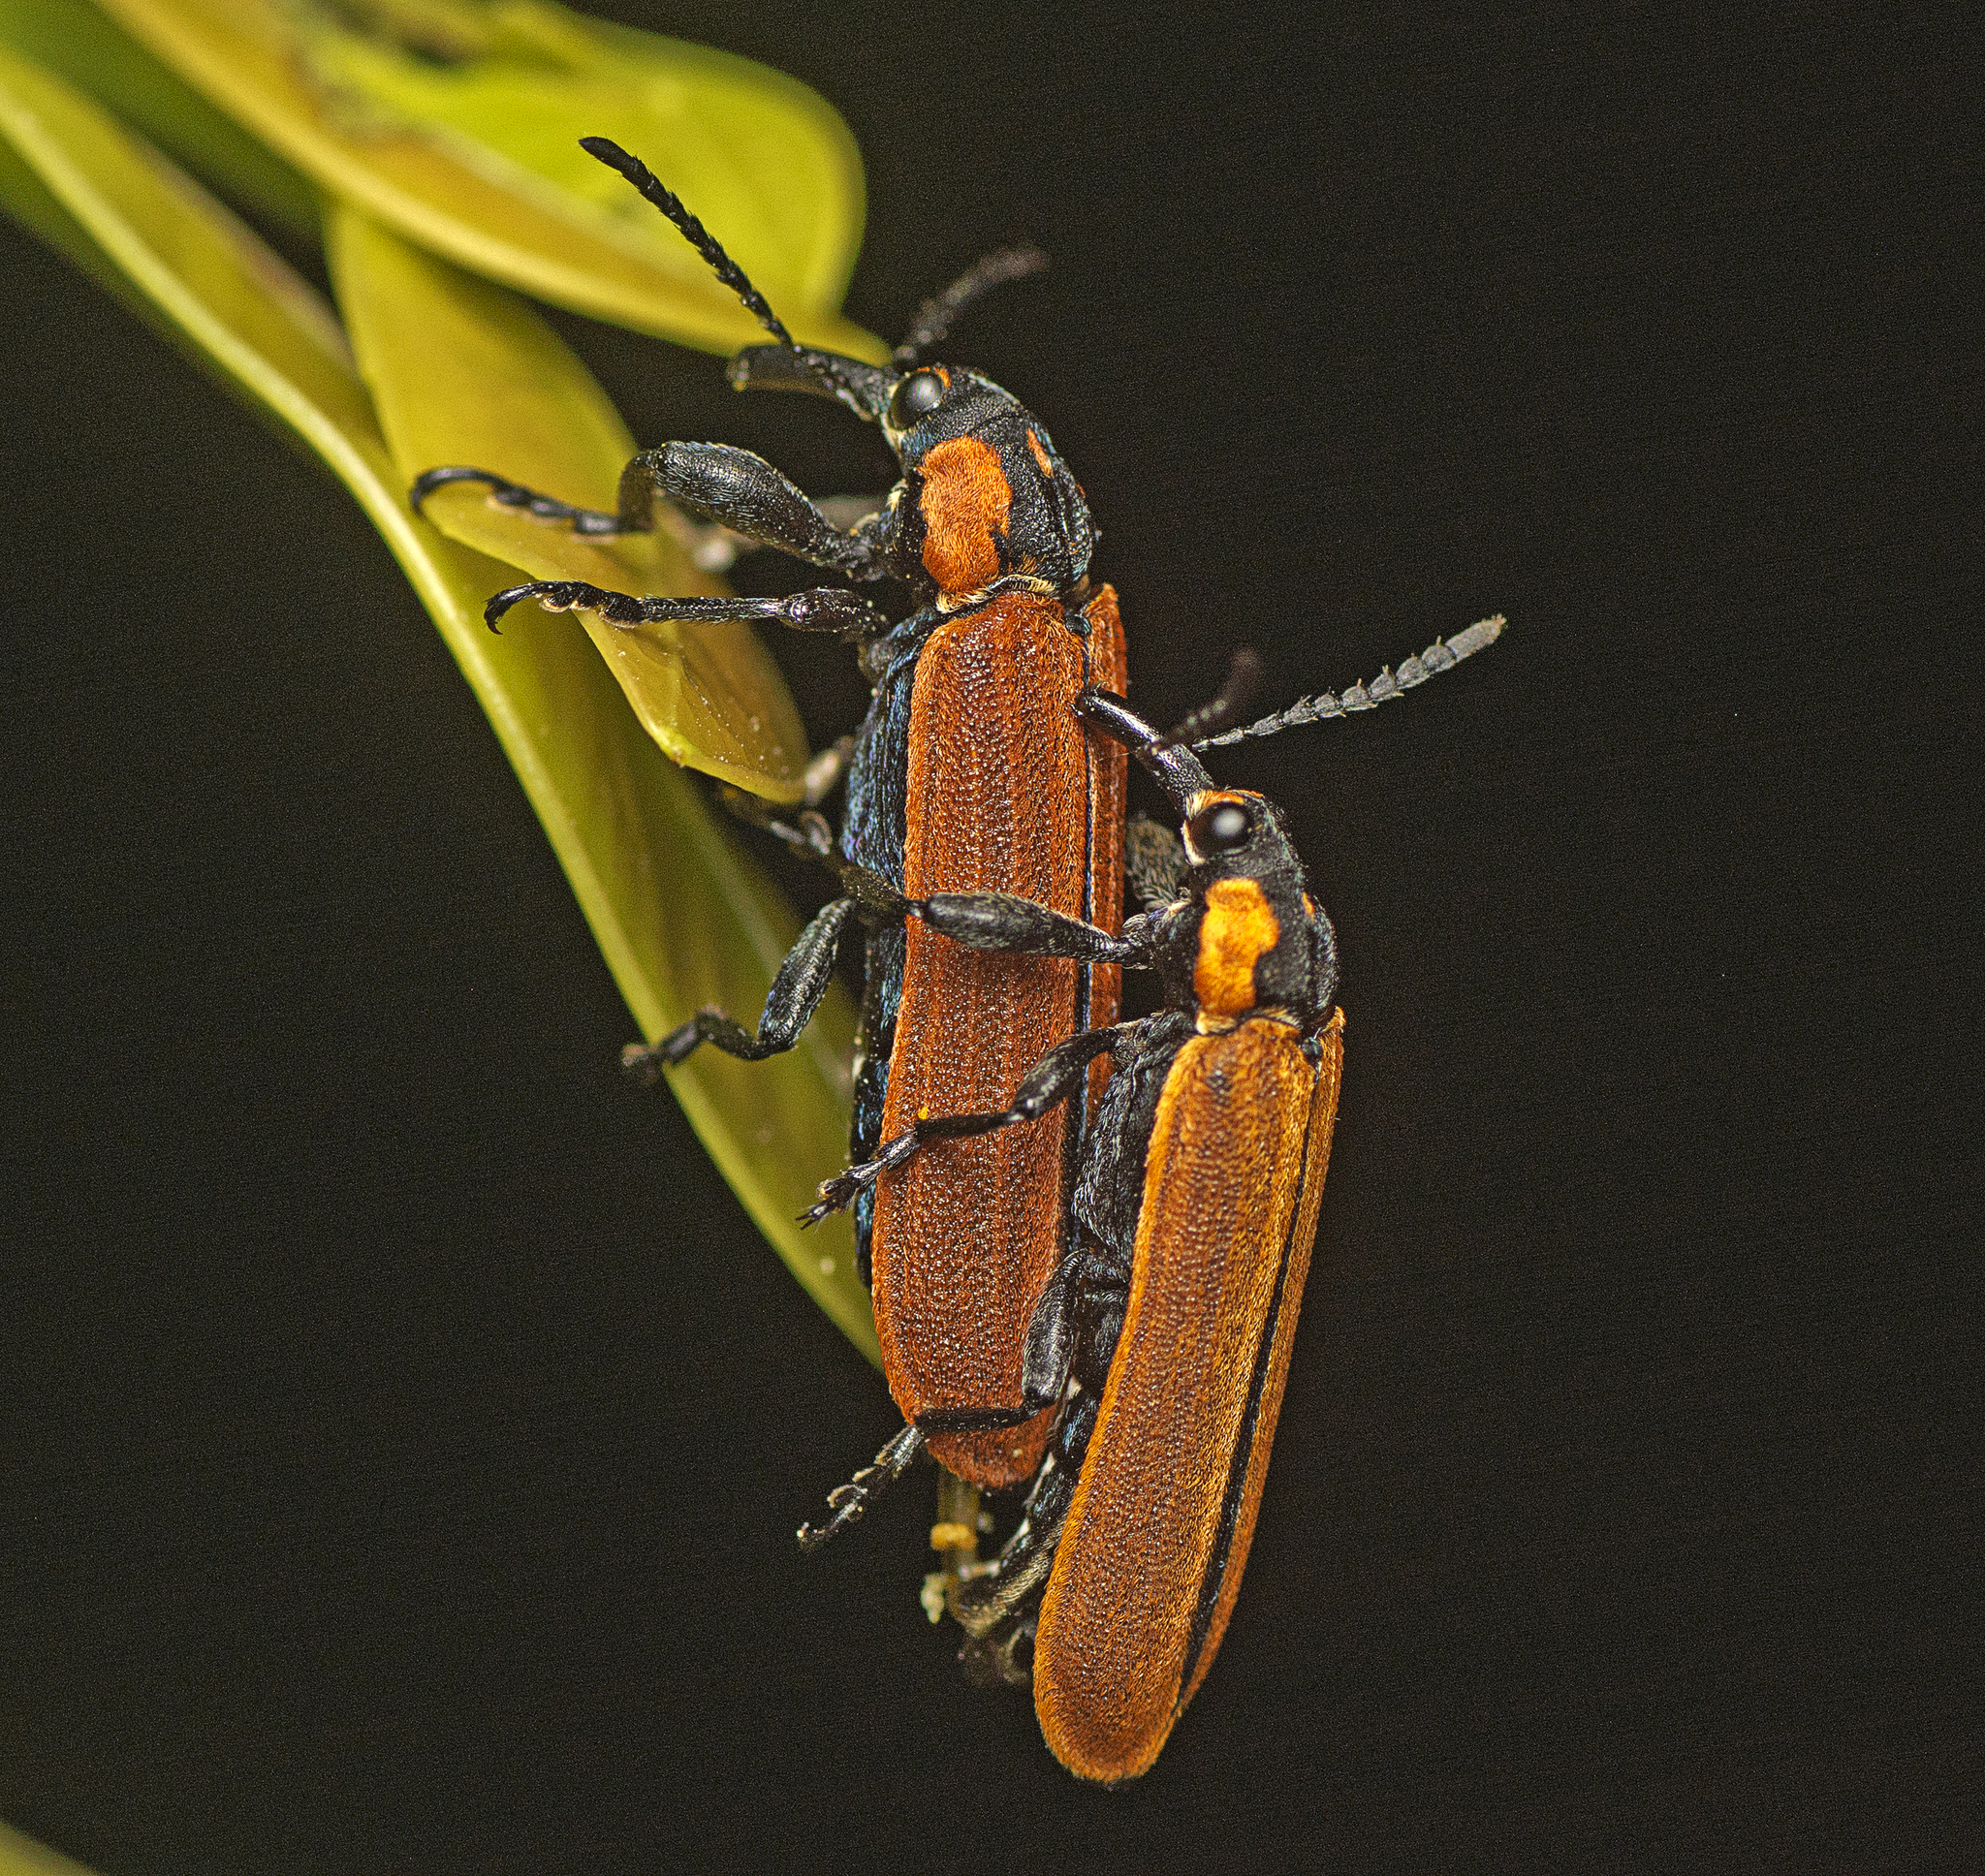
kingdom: Animalia
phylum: Arthropoda
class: Insecta
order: Coleoptera
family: Belidae
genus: Rhinotia
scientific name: Rhinotia haemoptera
